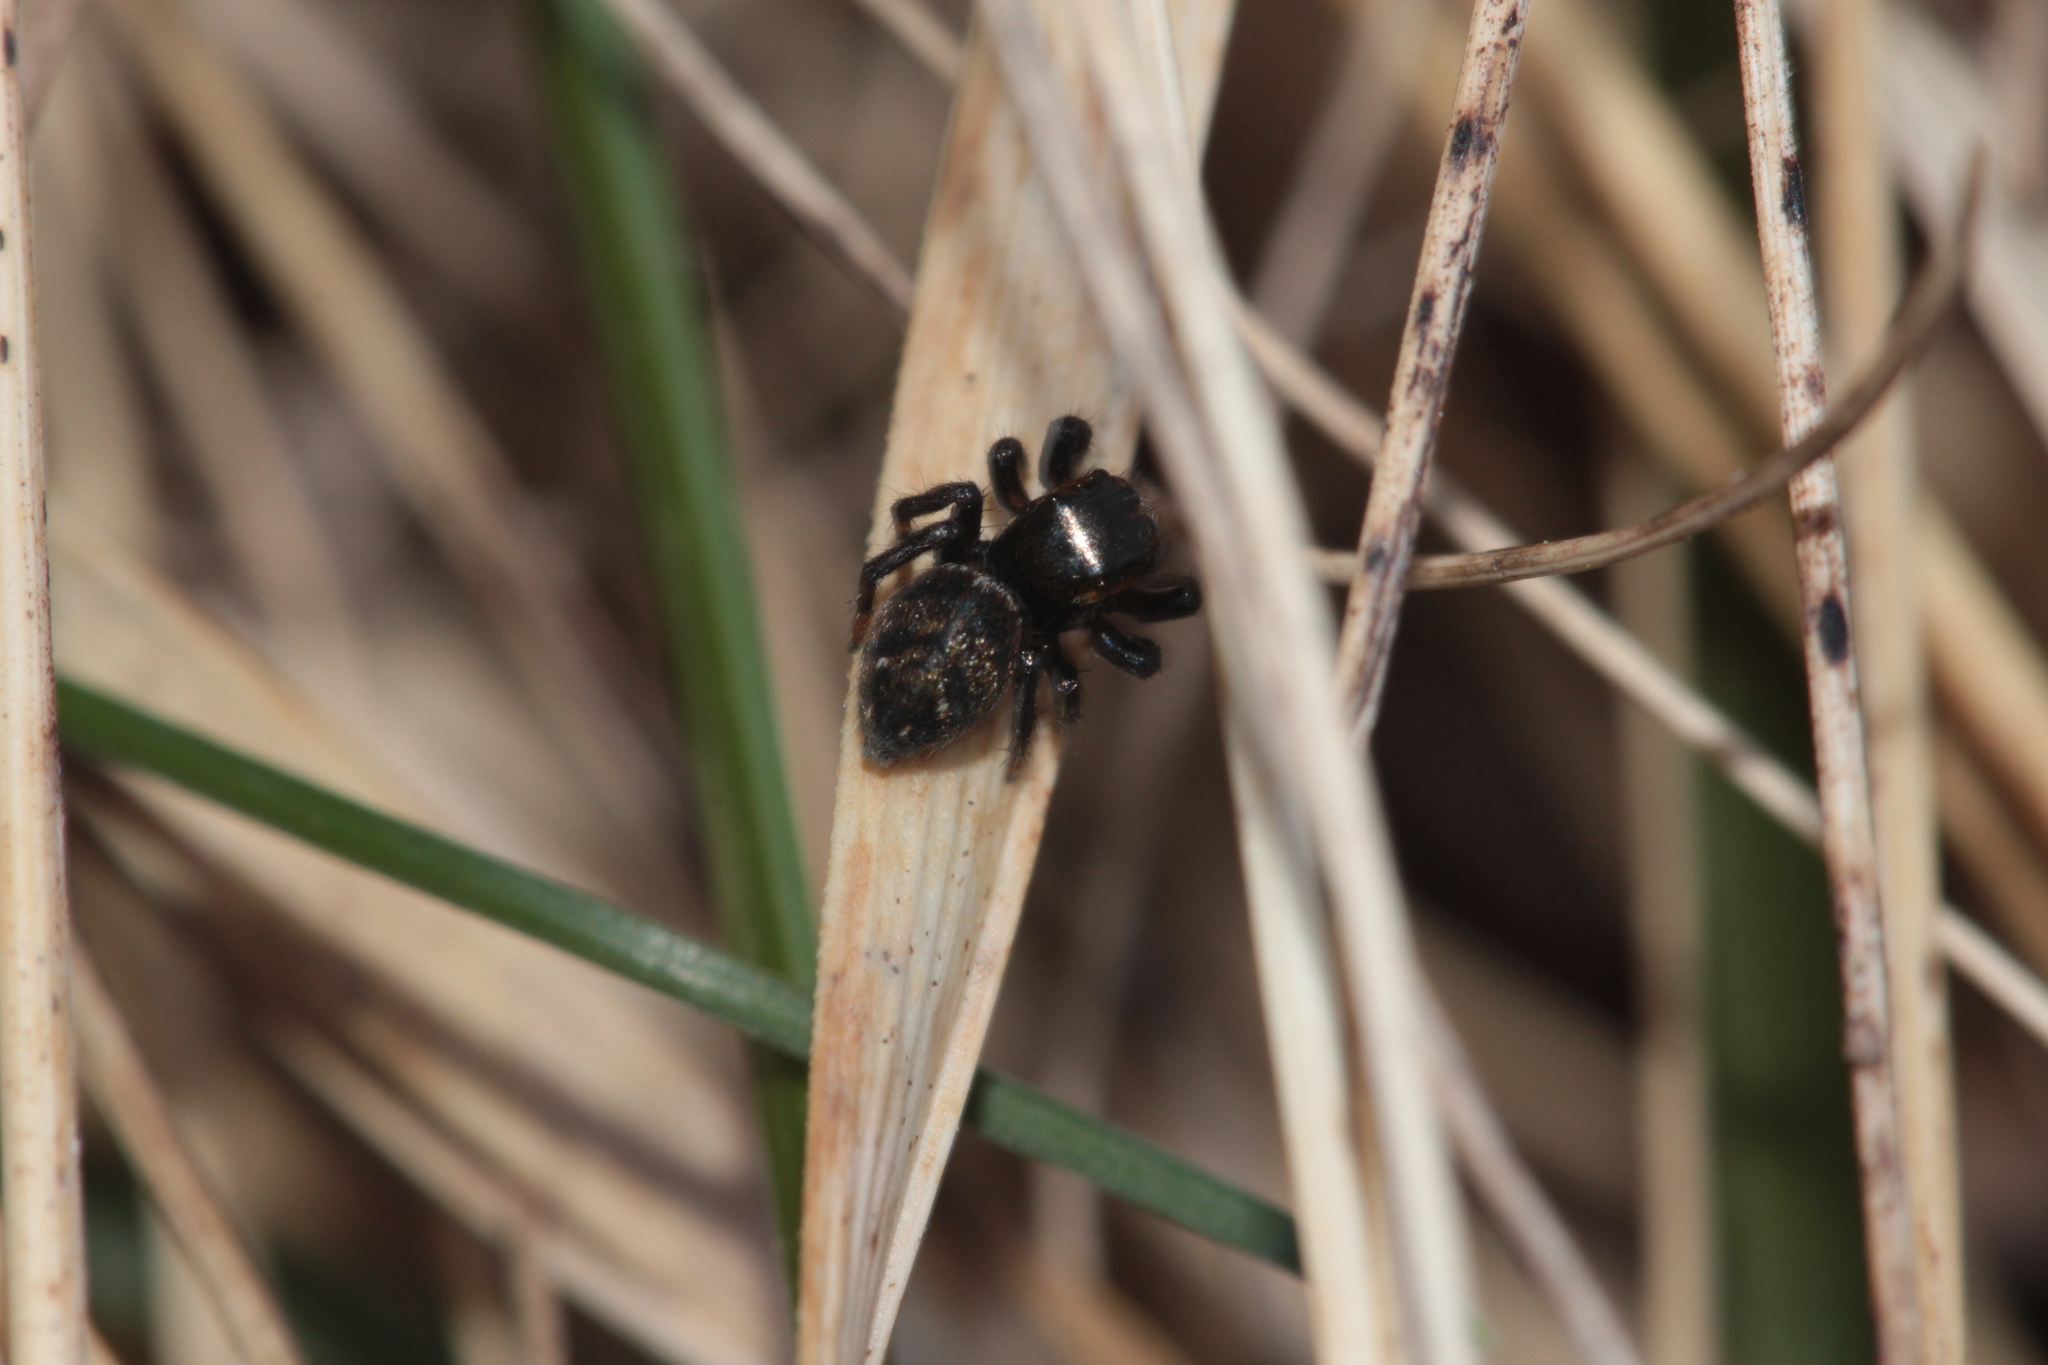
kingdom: Animalia
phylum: Arthropoda
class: Arachnida
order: Araneae
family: Salticidae
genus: Evarcha
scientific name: Evarcha arcuata
